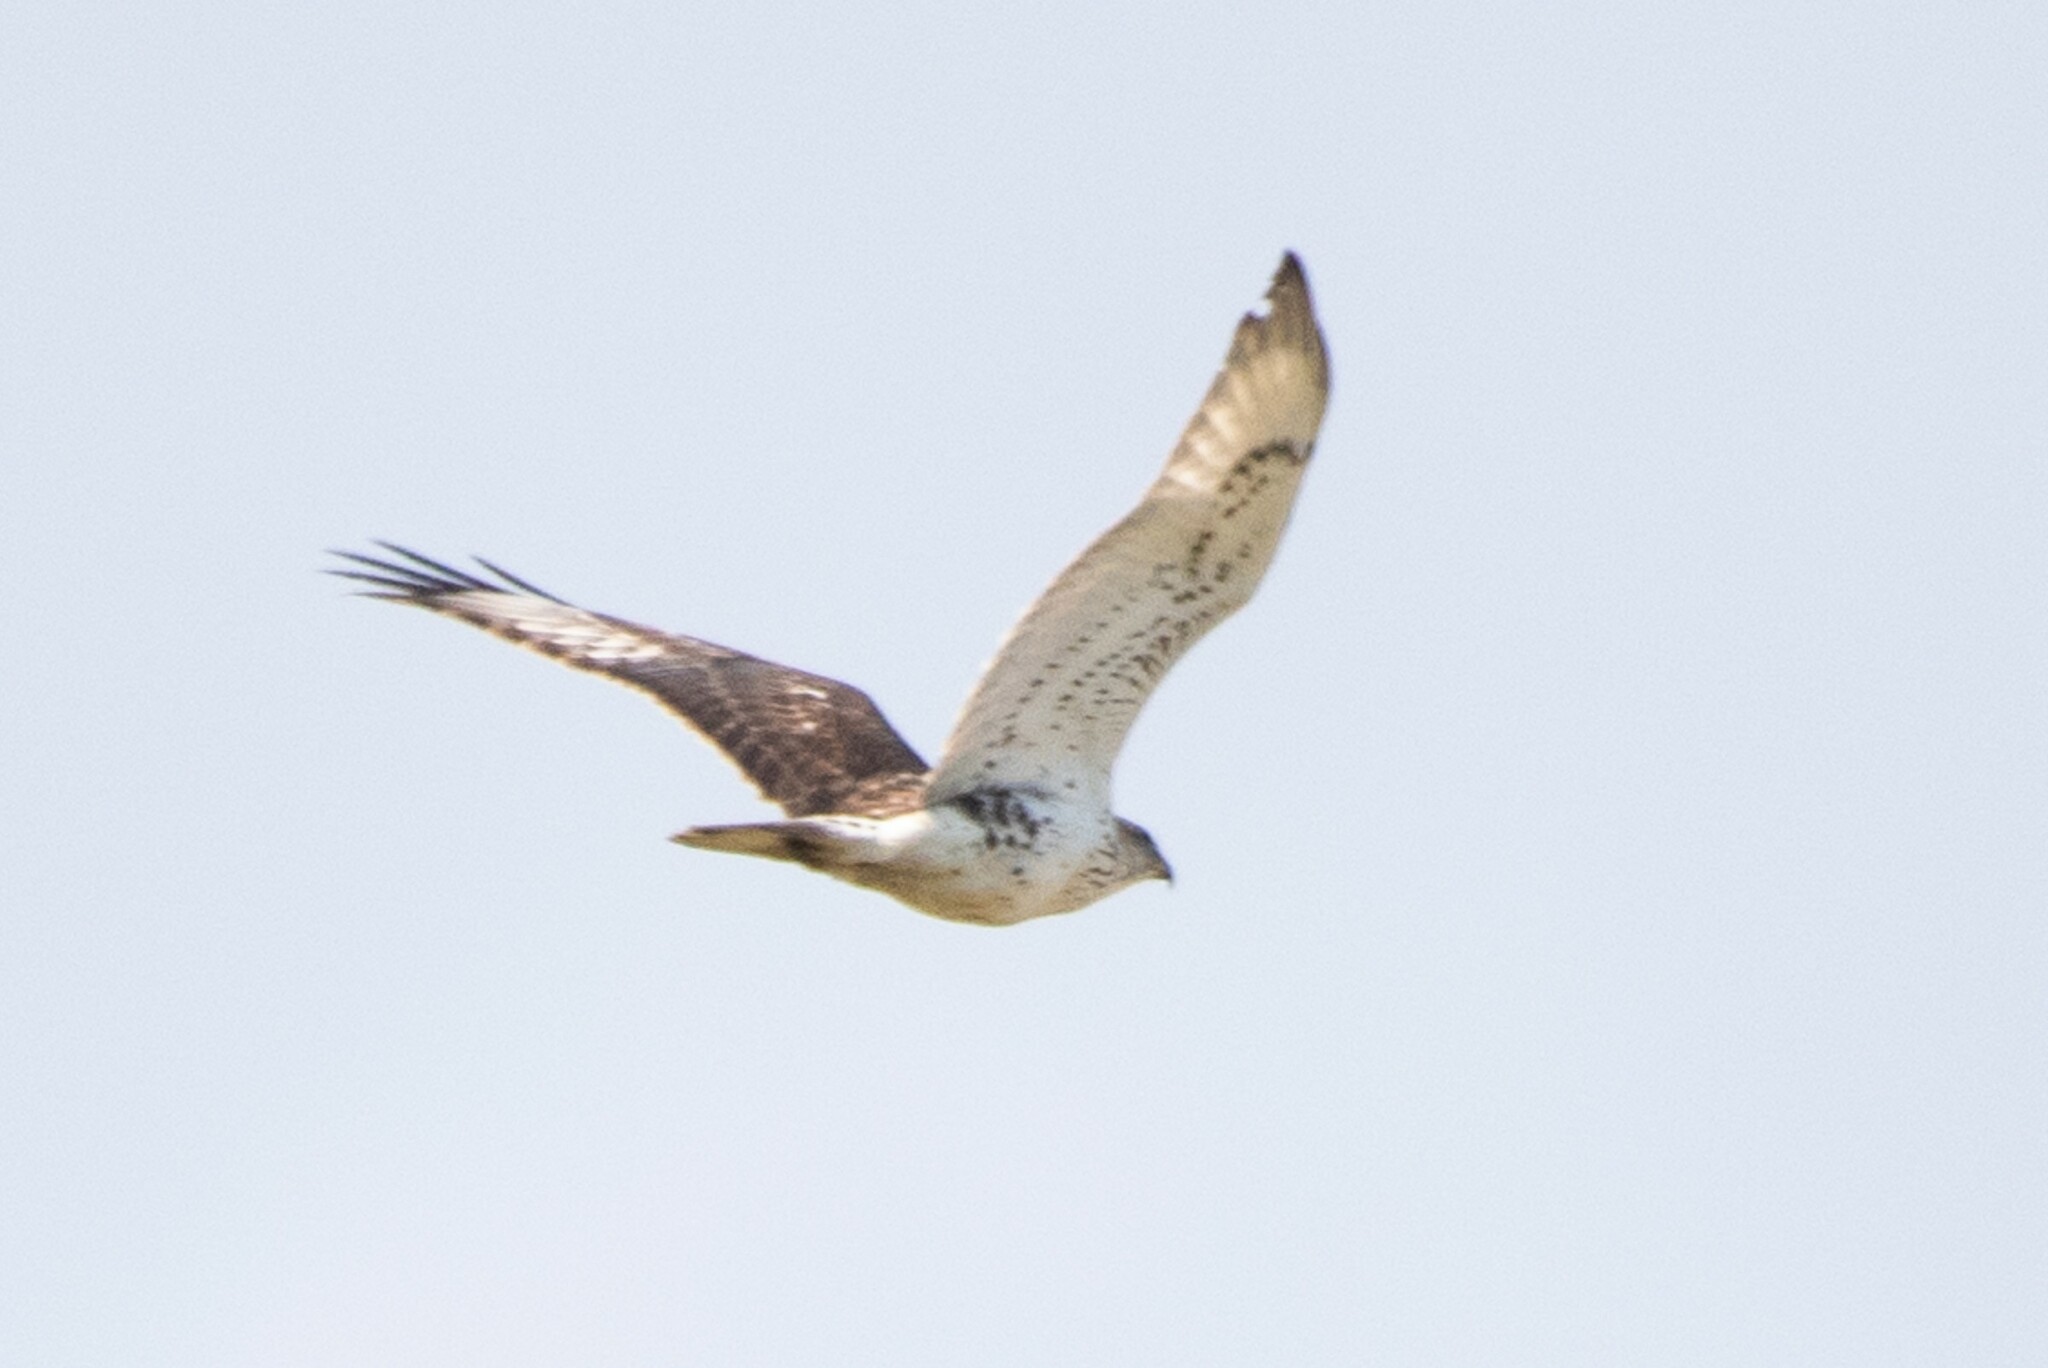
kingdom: Animalia
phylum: Chordata
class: Aves
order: Accipitriformes
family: Accipitridae
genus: Buteo
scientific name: Buteo regalis
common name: Ferruginous hawk
